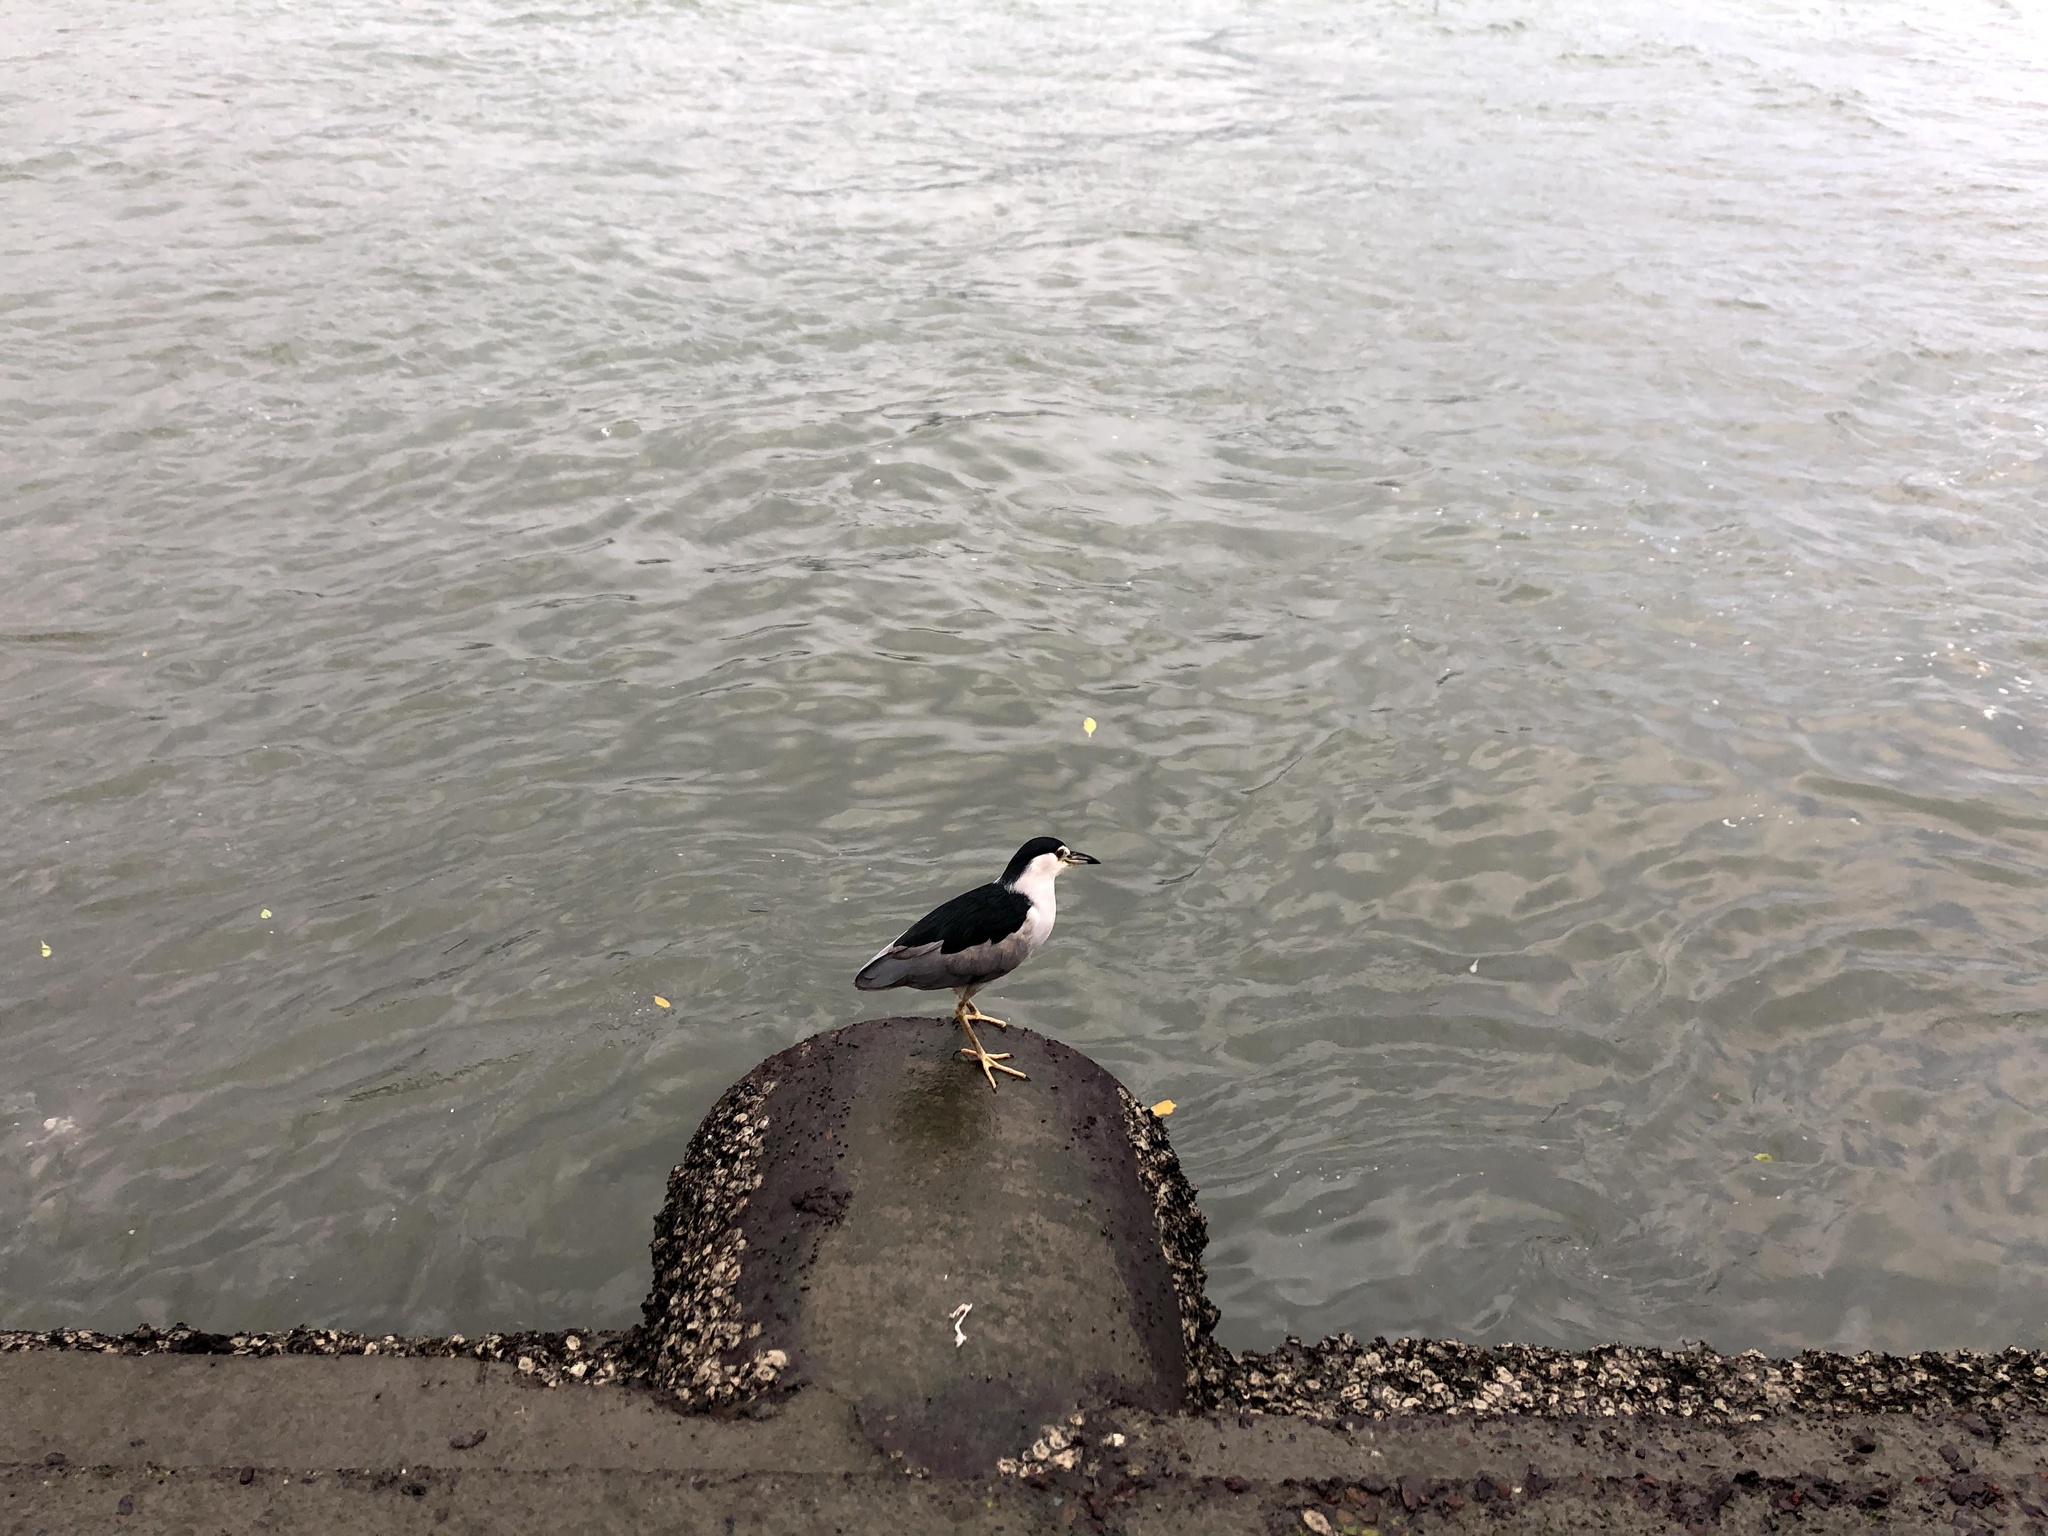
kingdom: Animalia
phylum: Chordata
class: Aves
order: Pelecaniformes
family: Ardeidae
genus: Nycticorax
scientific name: Nycticorax nycticorax
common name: Black-crowned night heron
